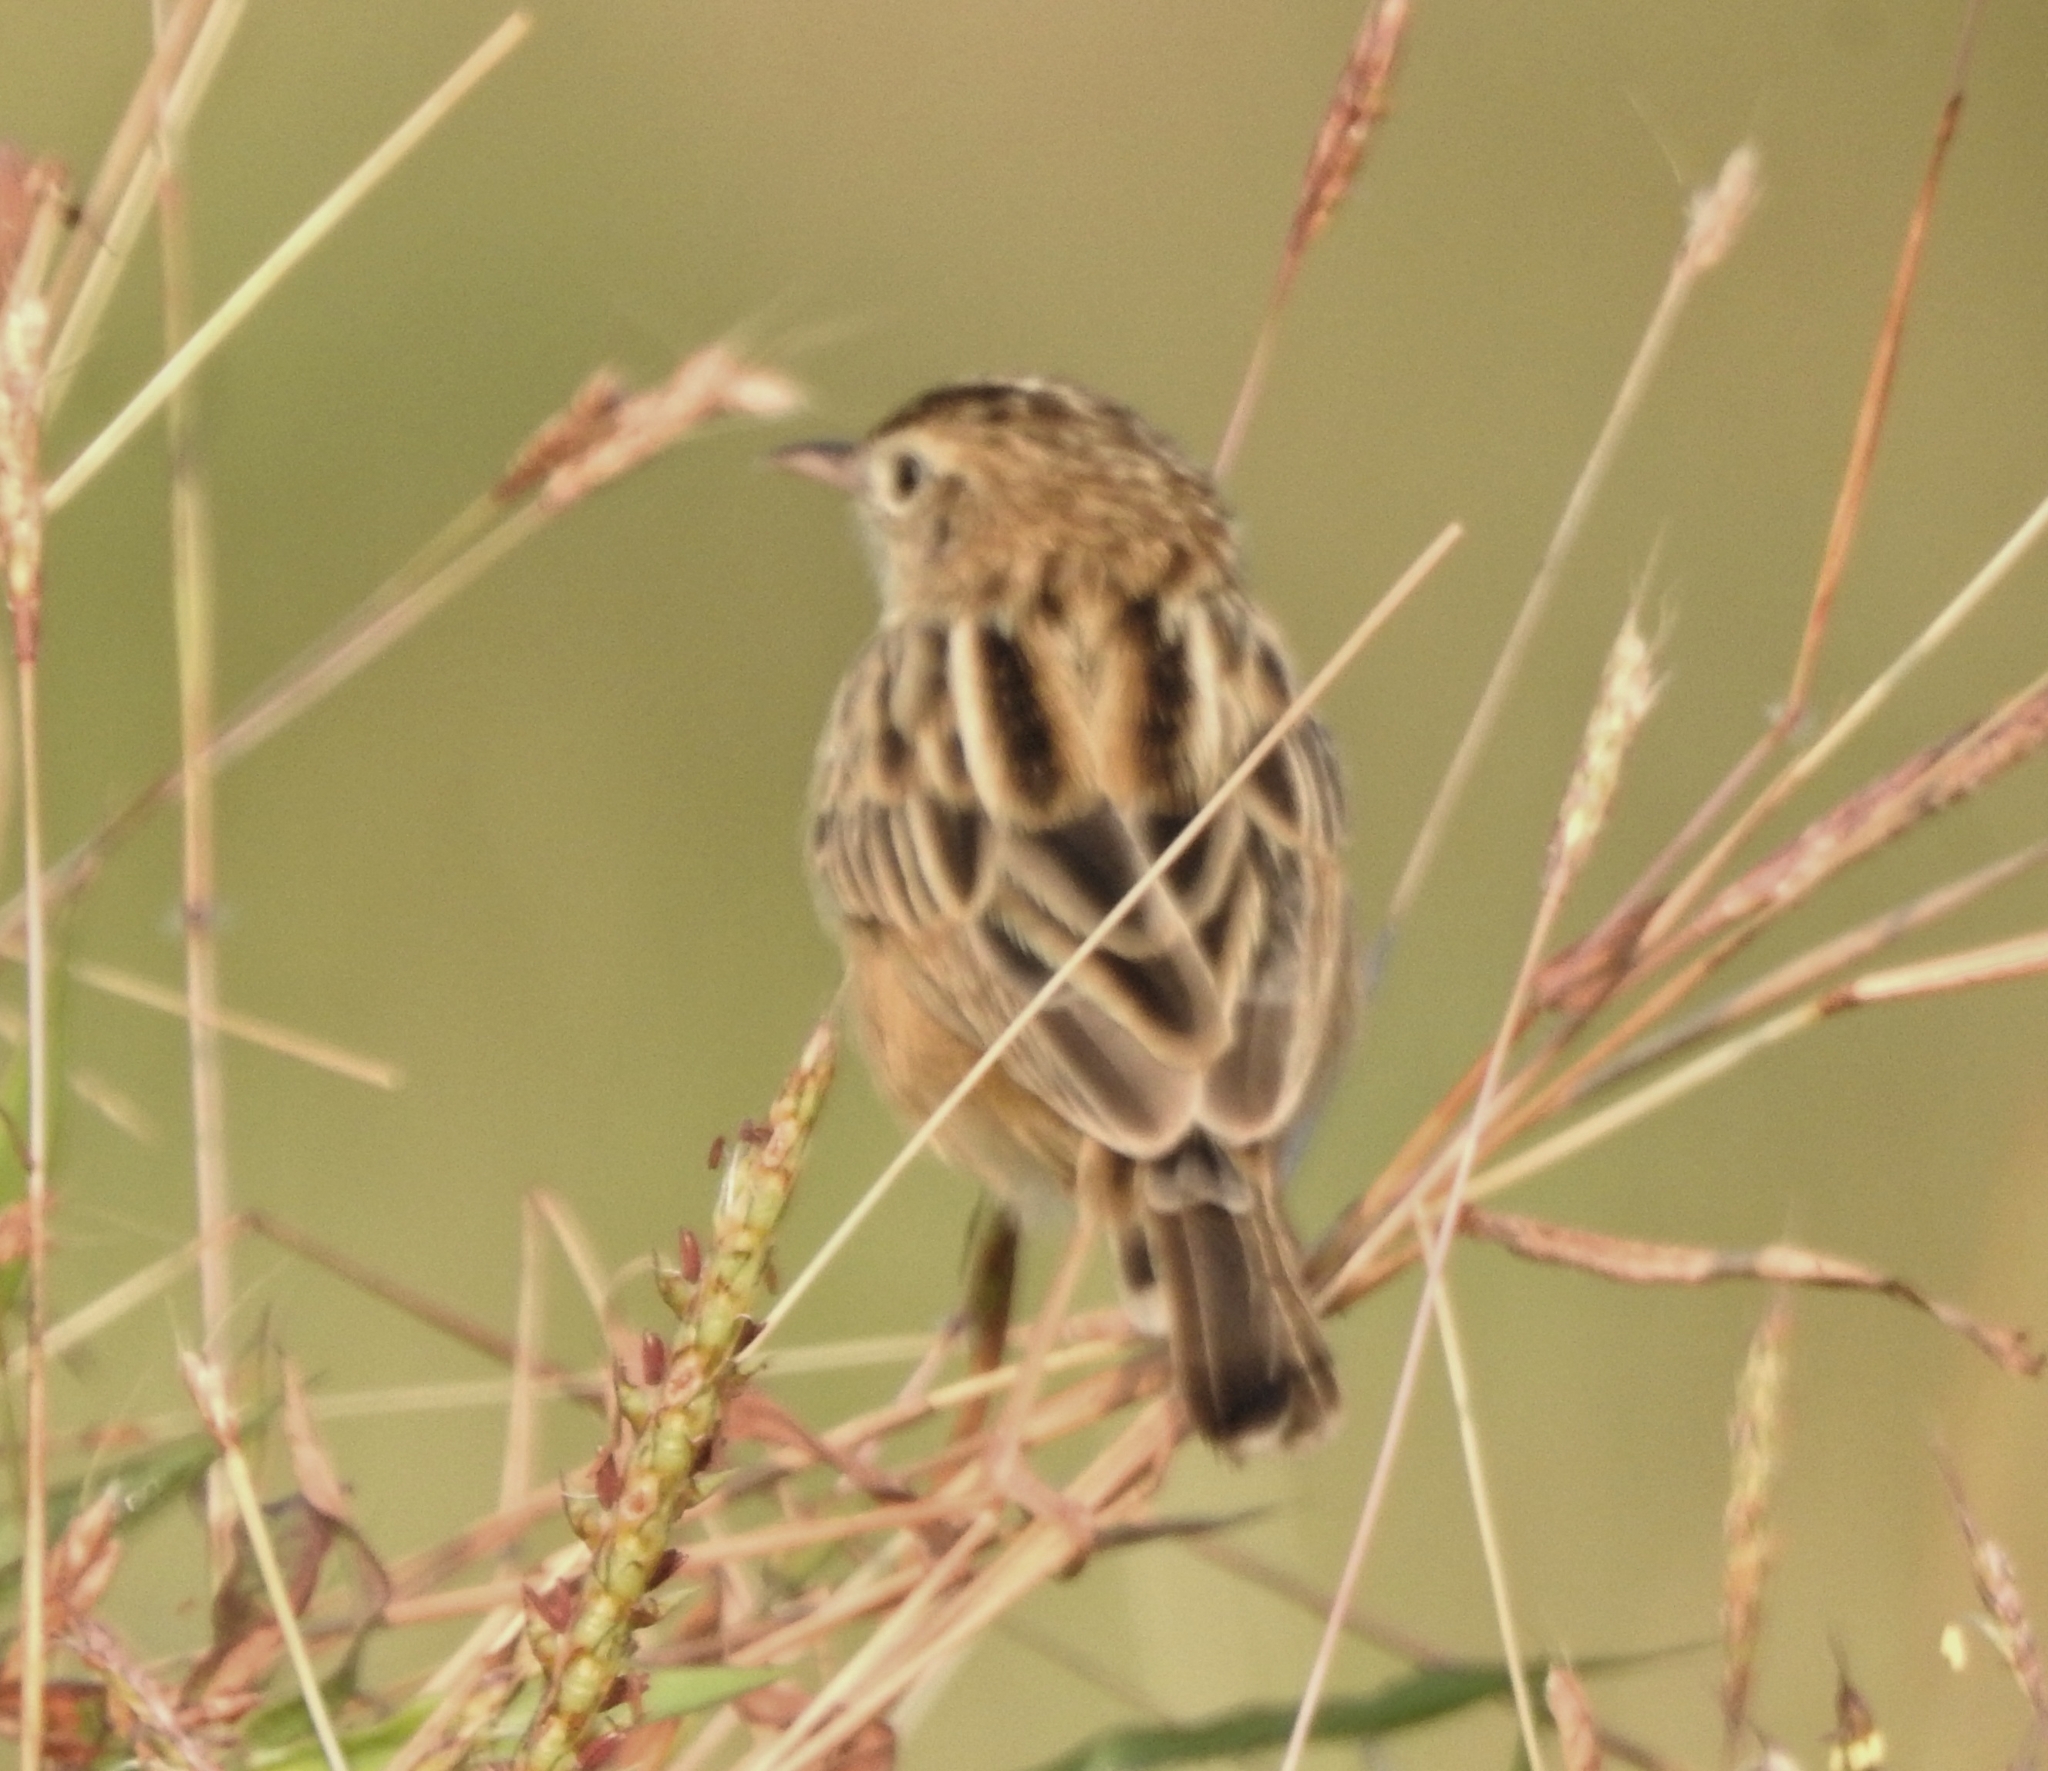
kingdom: Animalia
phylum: Chordata
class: Aves
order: Passeriformes
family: Cisticolidae
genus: Cisticola
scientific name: Cisticola juncidis
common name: Zitting cisticola
